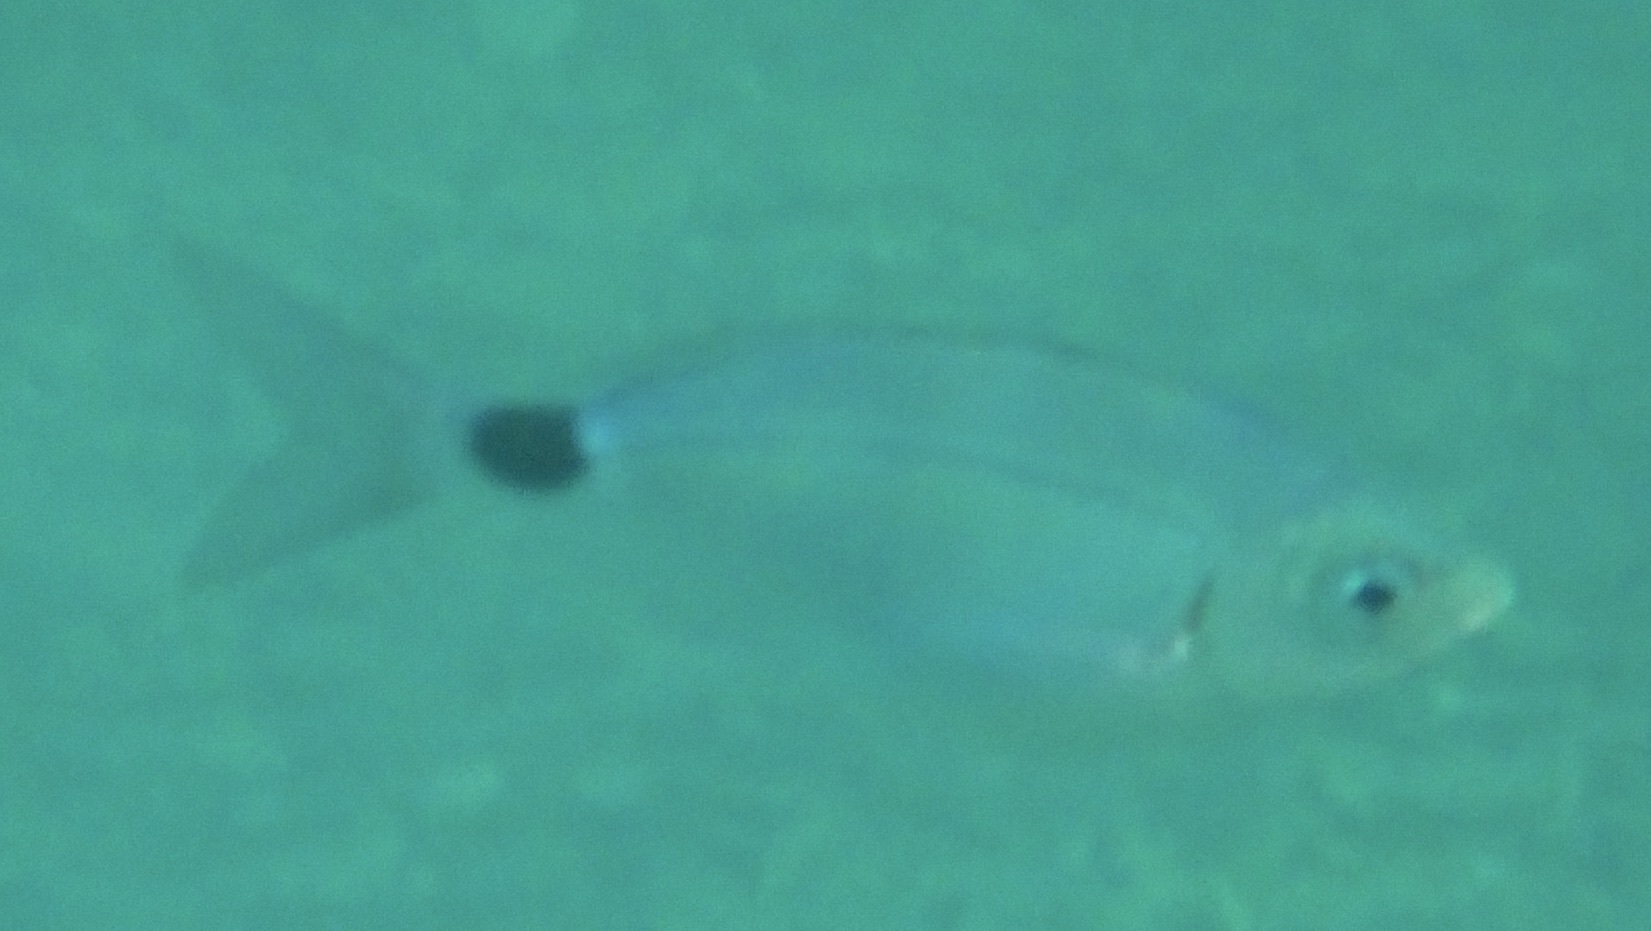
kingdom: Animalia
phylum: Chordata
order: Perciformes
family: Sparidae
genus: Oblada
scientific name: Oblada melanura
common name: Saddled seabream
